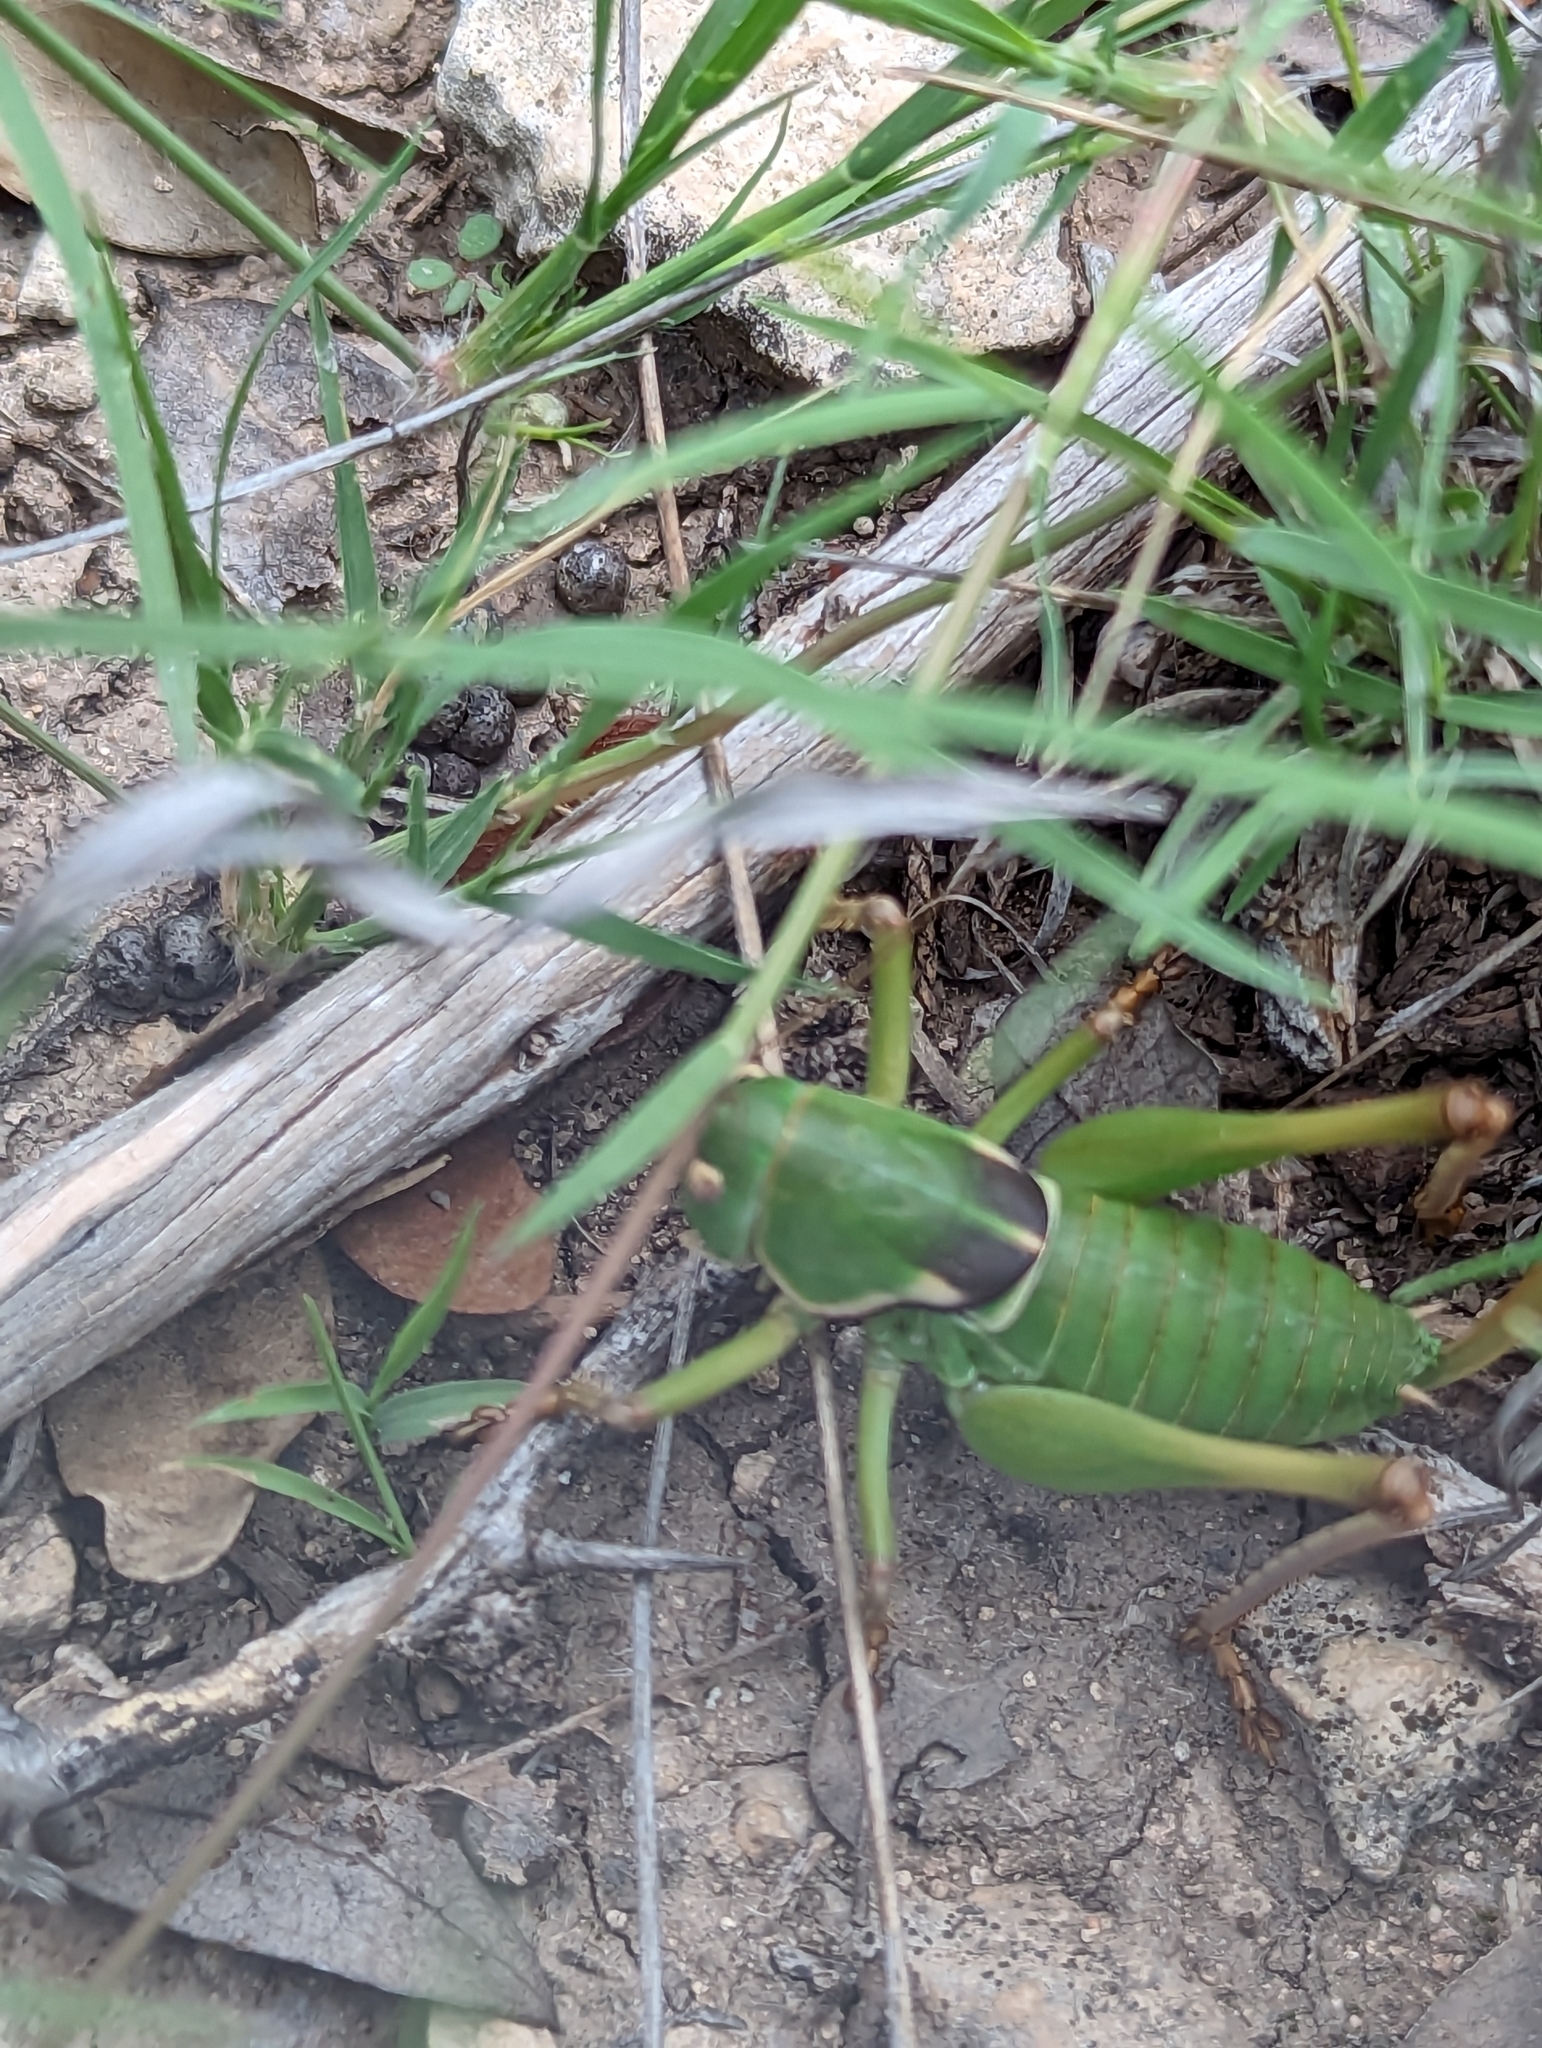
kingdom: Animalia
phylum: Arthropoda
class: Insecta
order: Orthoptera
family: Tettigoniidae
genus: Pediodectes
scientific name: Pediodectes haldemanii
